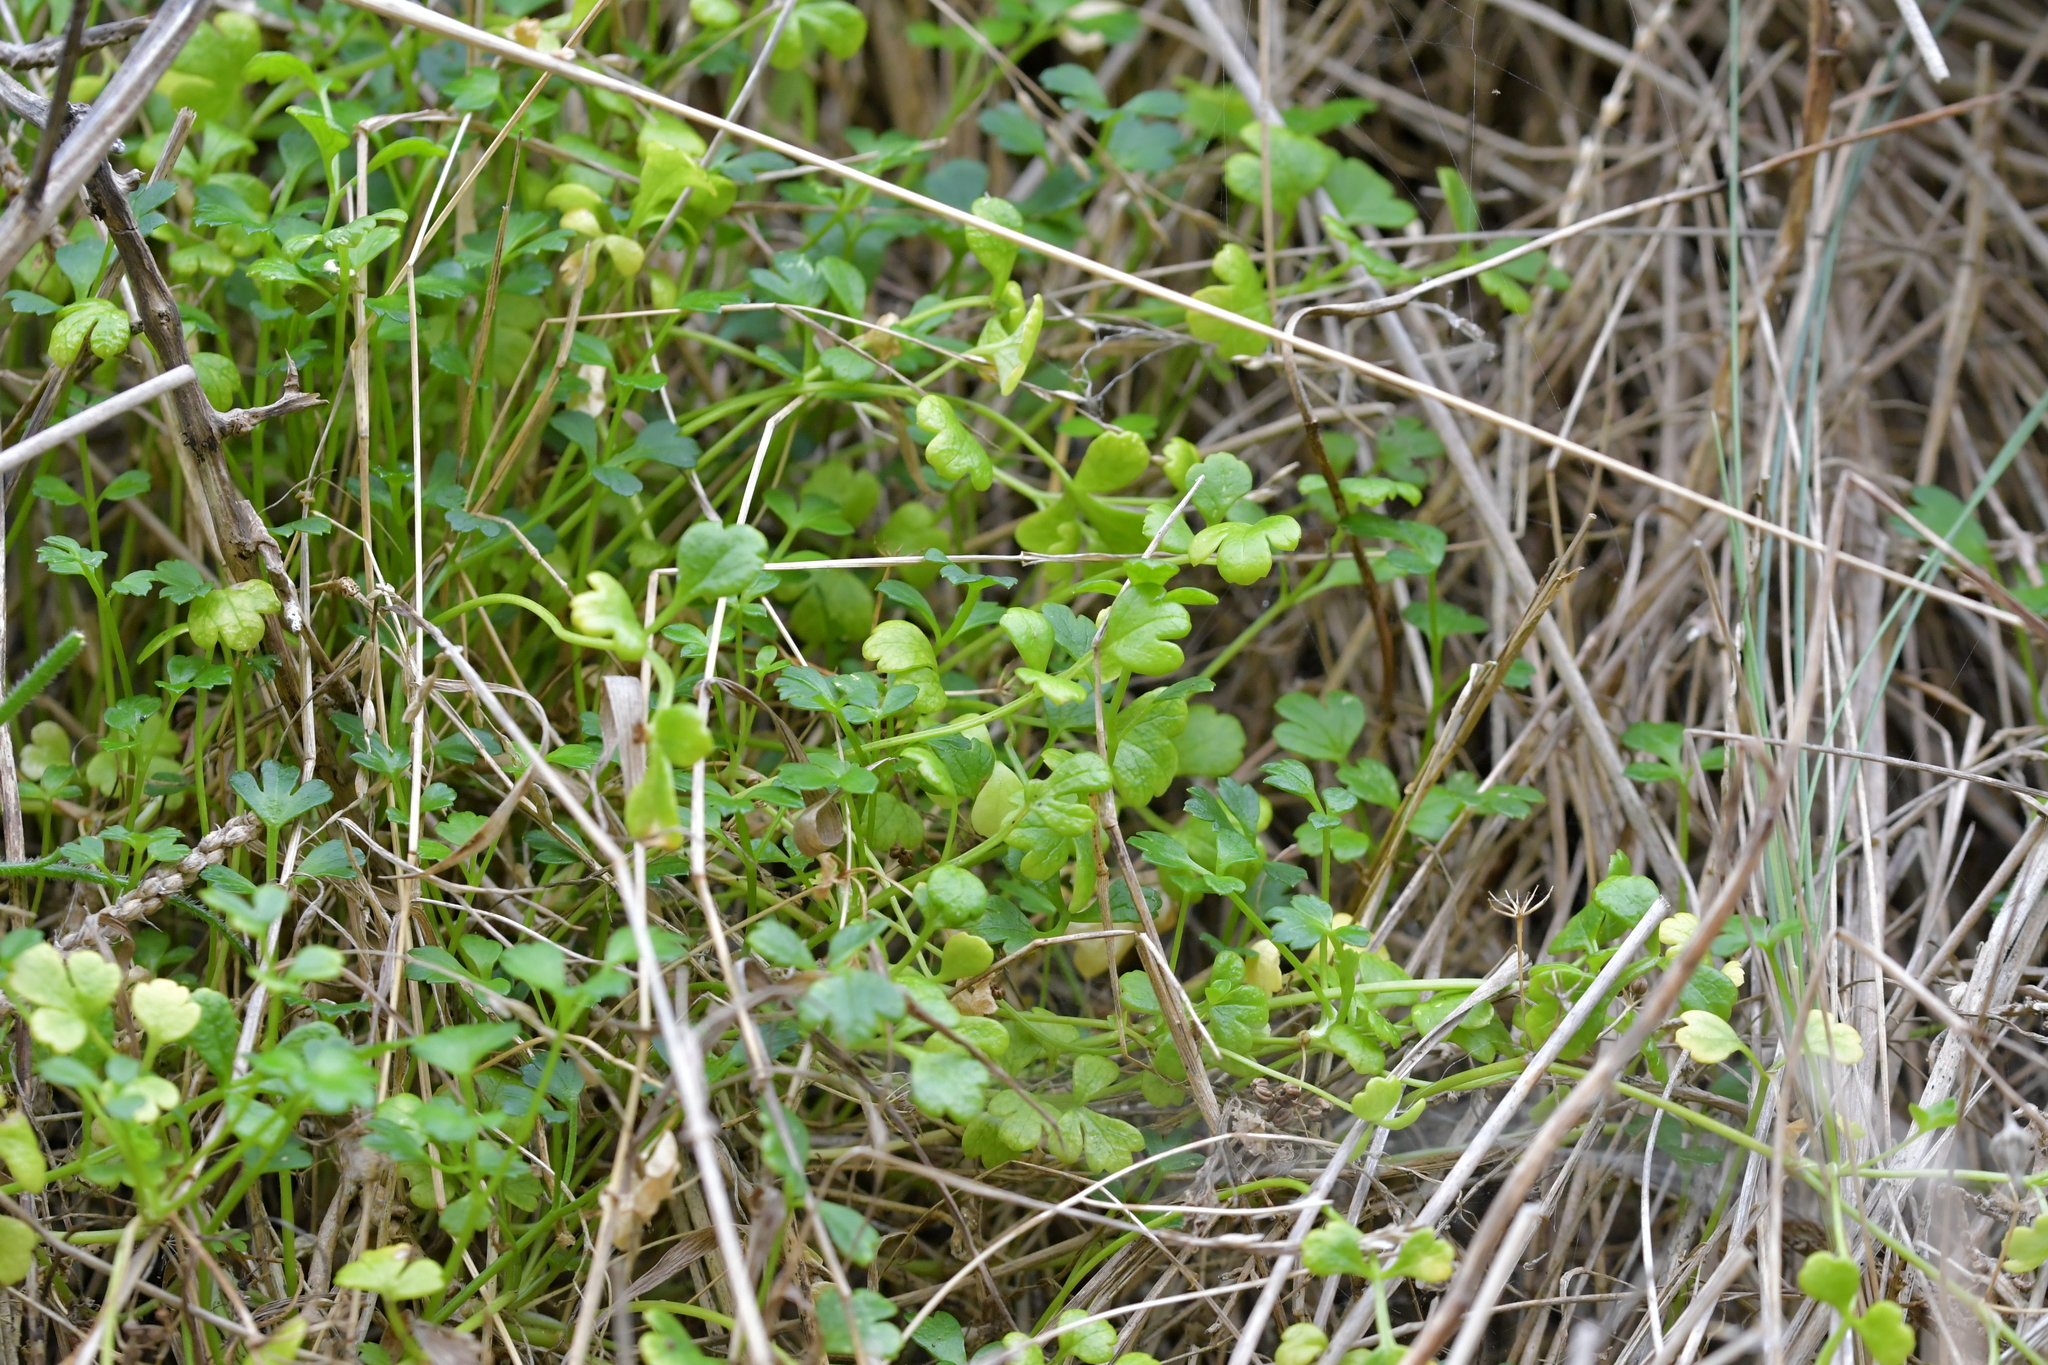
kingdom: Plantae
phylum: Tracheophyta
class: Magnoliopsida
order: Apiales
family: Apiaceae
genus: Apium
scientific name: Apium prostratum
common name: Prostrate marshwort
